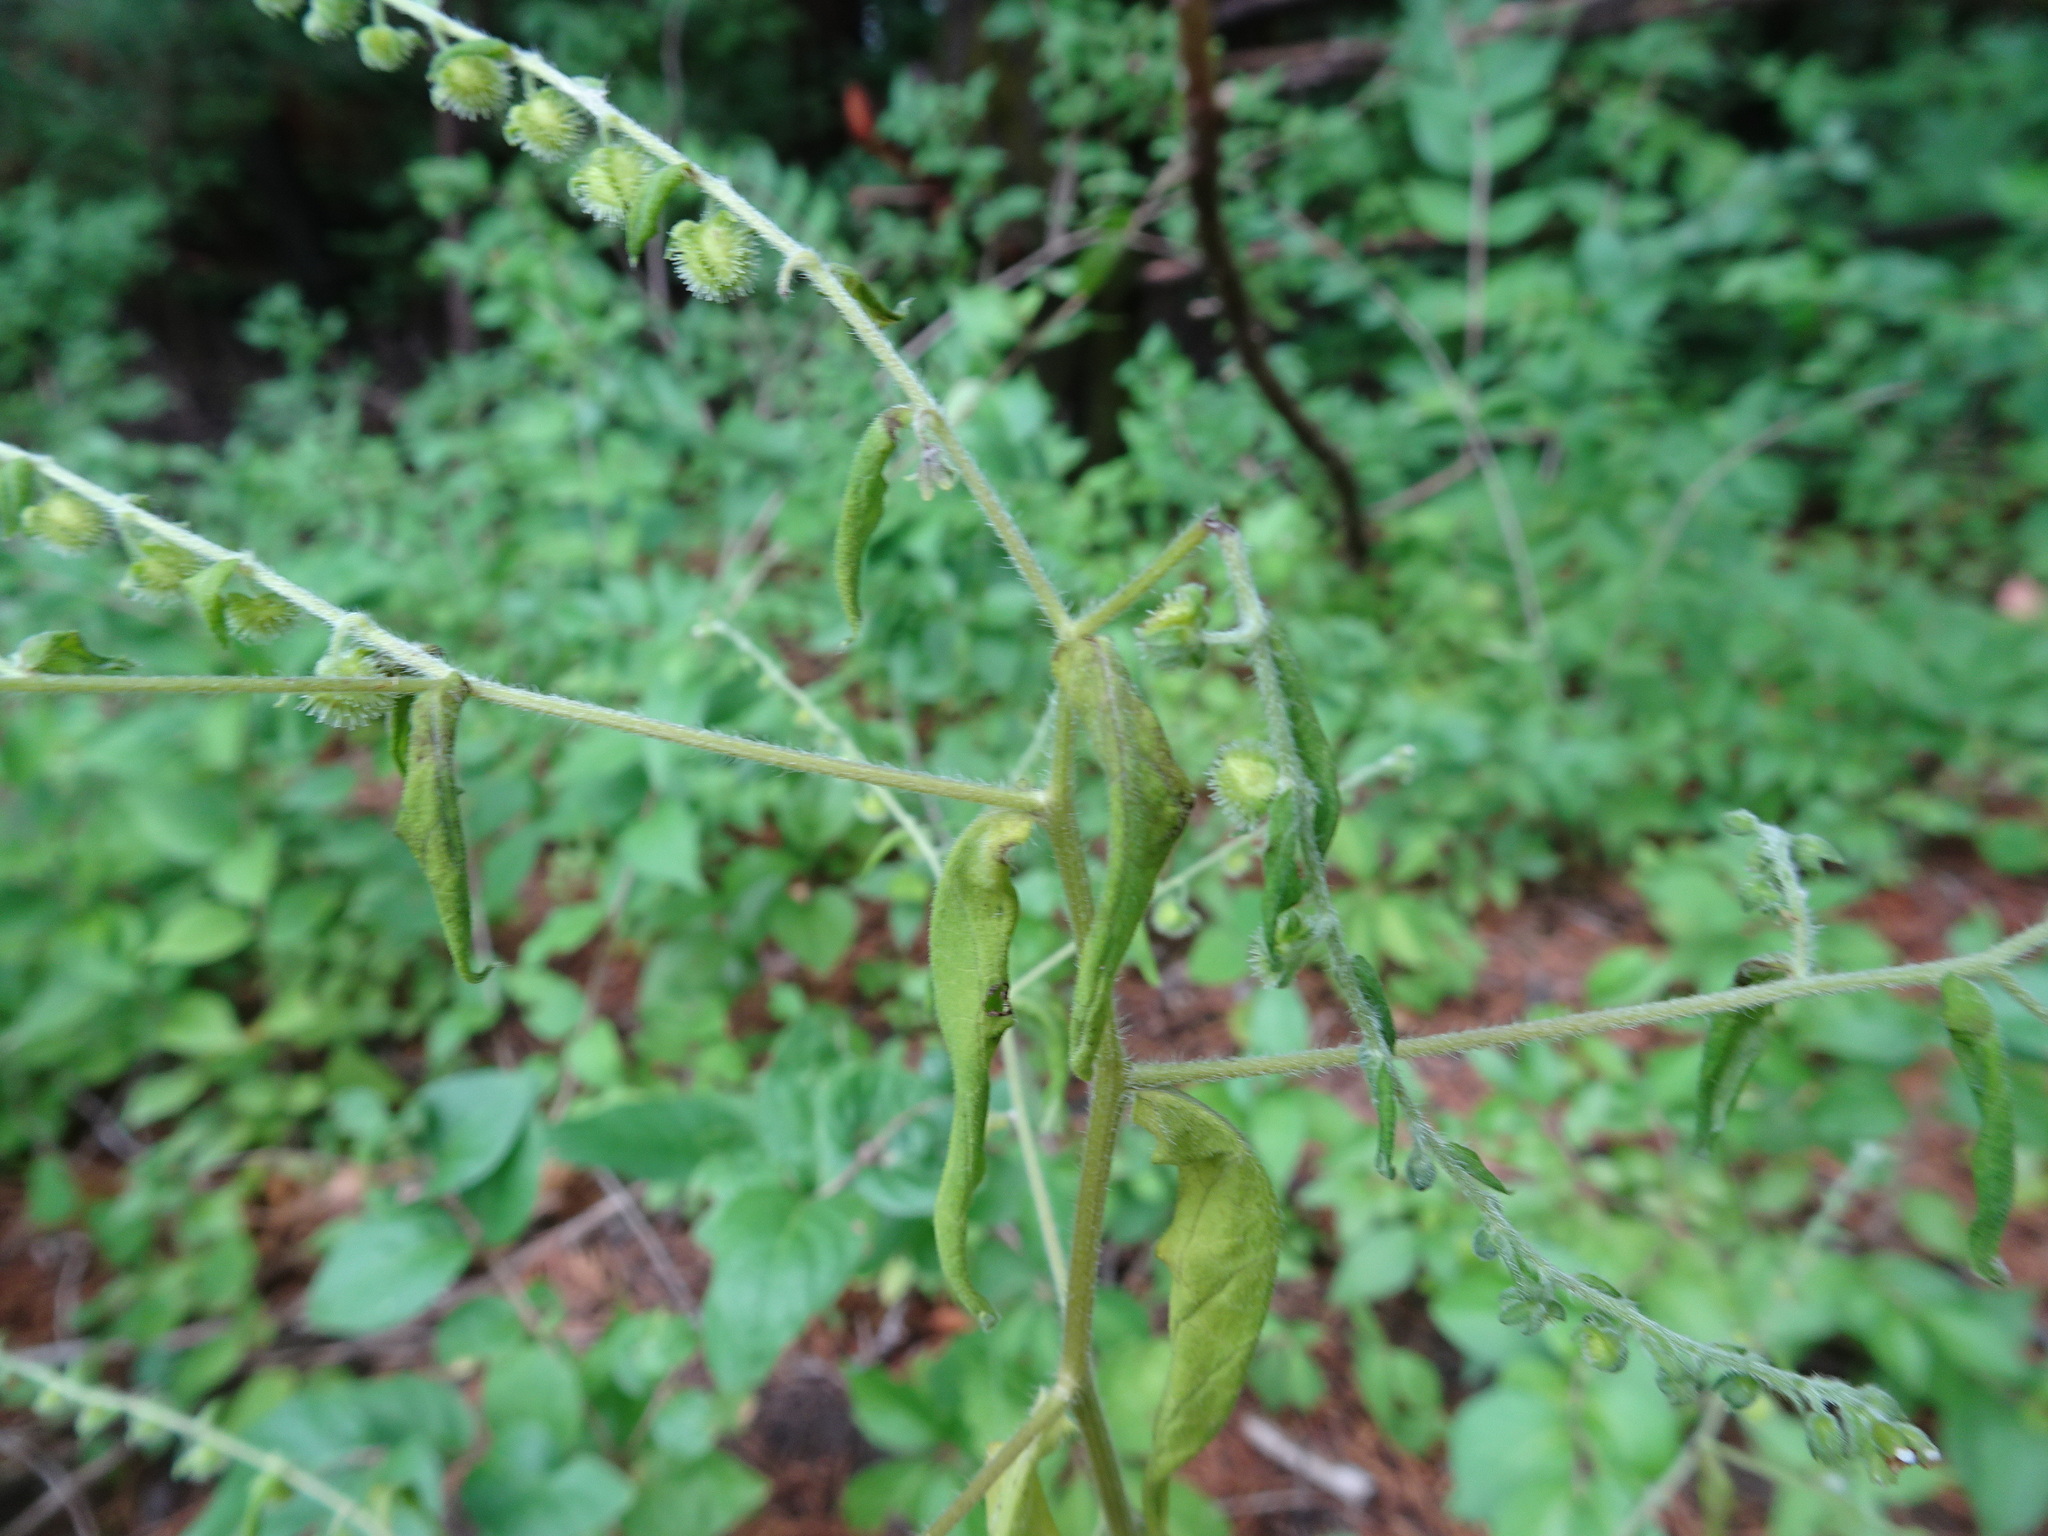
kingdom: Plantae
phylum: Tracheophyta
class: Magnoliopsida
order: Boraginales
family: Boraginaceae
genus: Hackelia
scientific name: Hackelia virginiana
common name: Beggar's-lice
